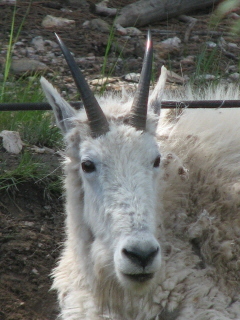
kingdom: Animalia
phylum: Chordata
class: Mammalia
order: Artiodactyla
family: Bovidae
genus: Oreamnos
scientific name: Oreamnos americanus
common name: Mountain goat
